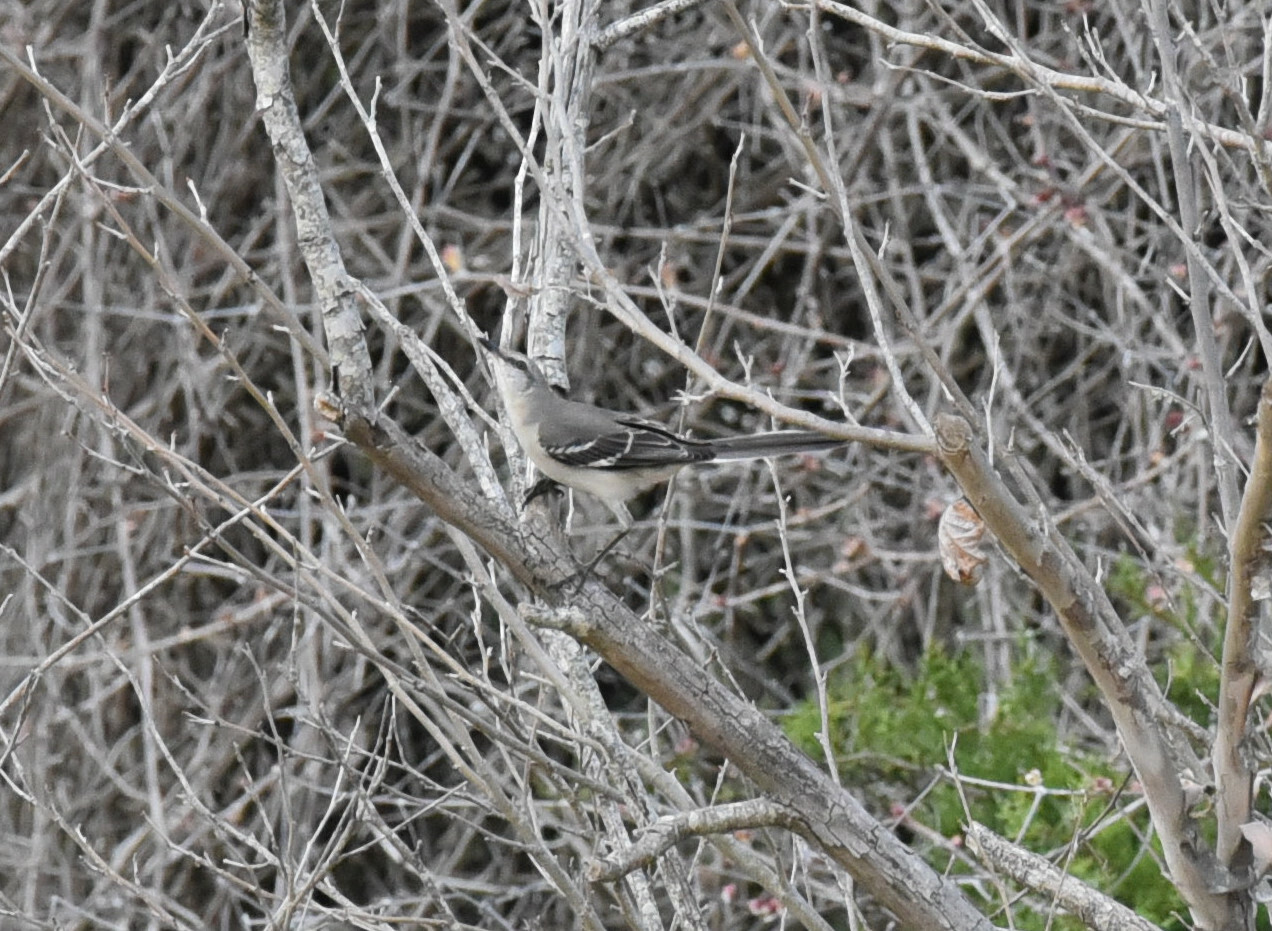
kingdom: Animalia
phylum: Chordata
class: Aves
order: Passeriformes
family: Mimidae
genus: Mimus
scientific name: Mimus polyglottos
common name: Northern mockingbird
